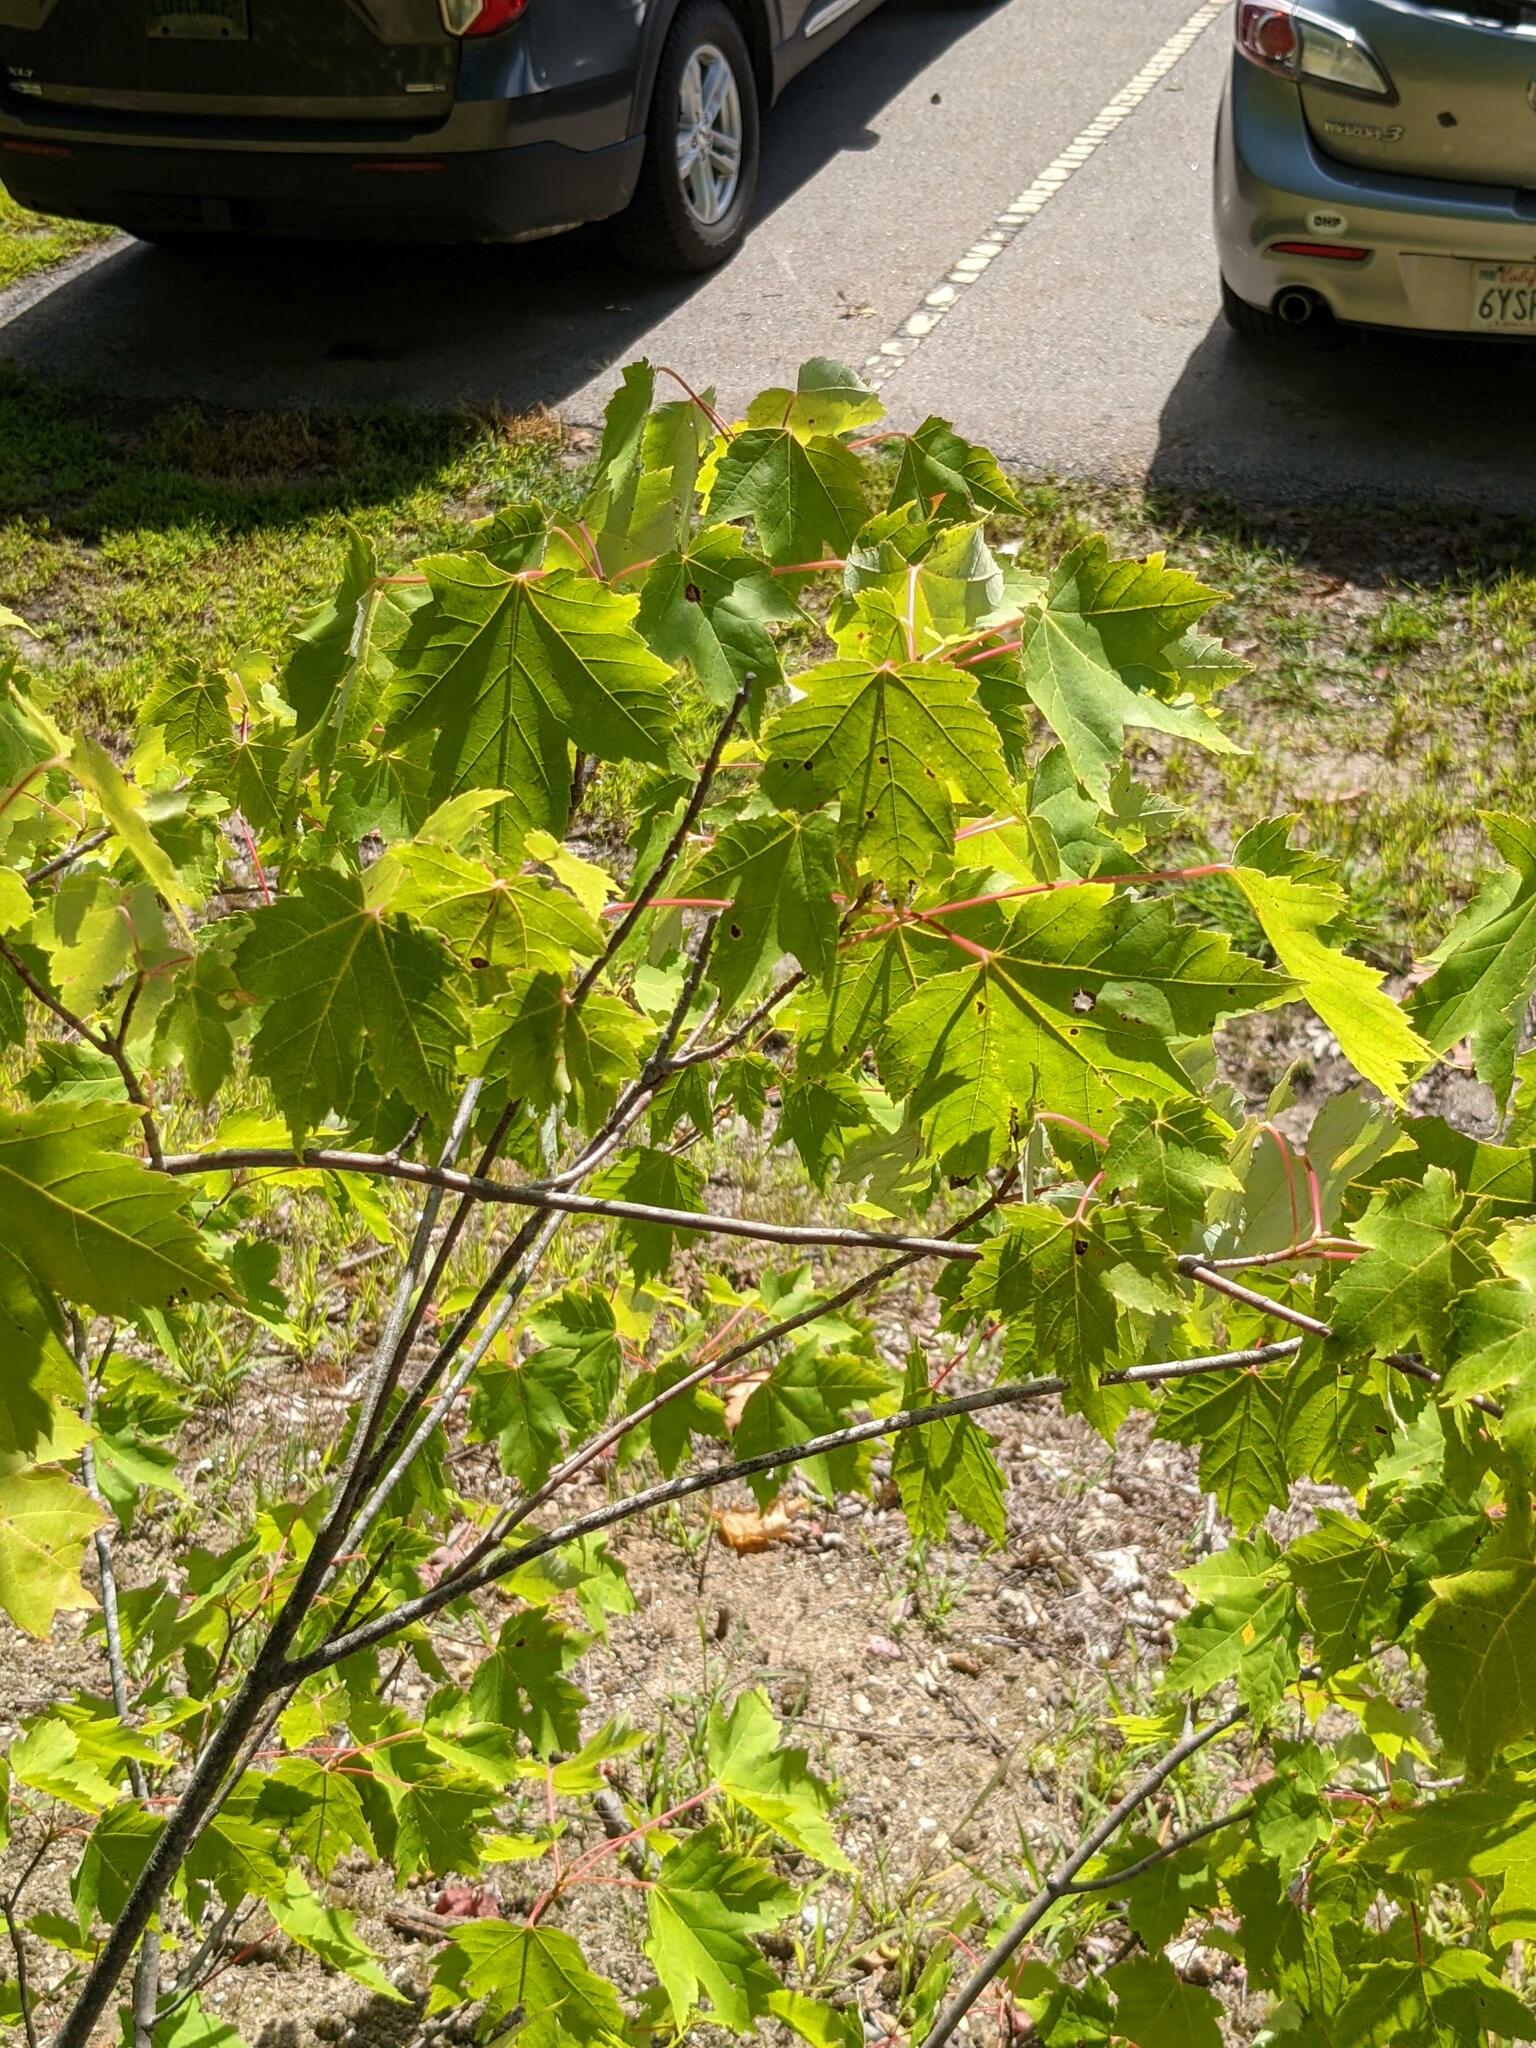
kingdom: Plantae
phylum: Tracheophyta
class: Magnoliopsida
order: Sapindales
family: Sapindaceae
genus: Acer
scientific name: Acer rubrum
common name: Red maple
